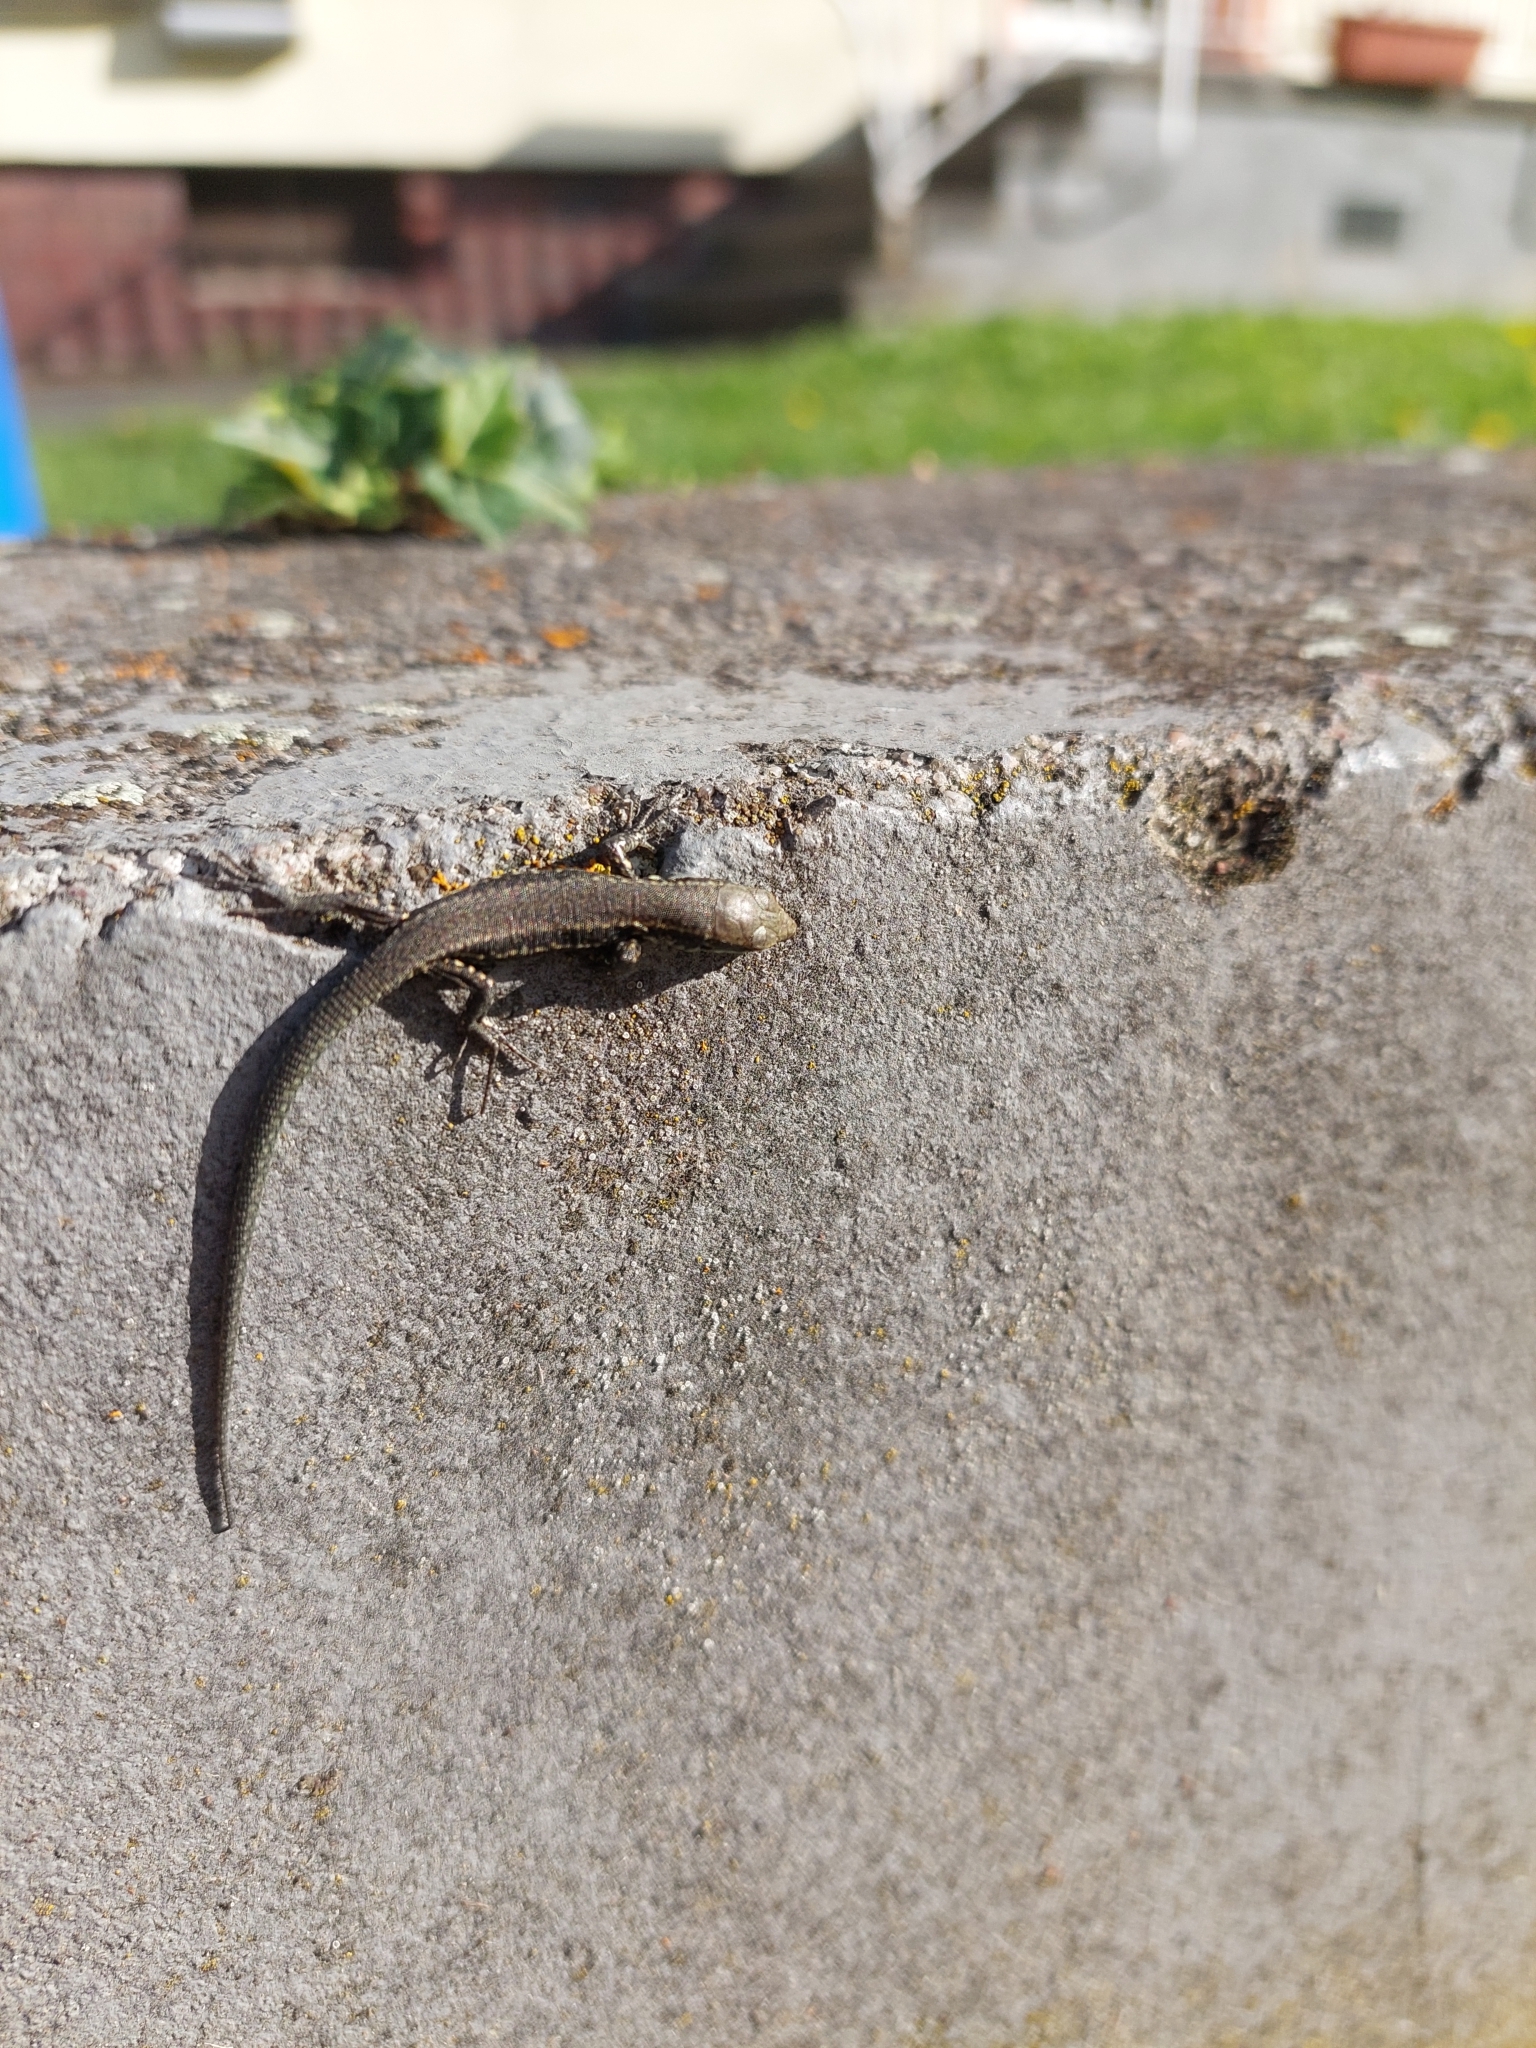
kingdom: Animalia
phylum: Chordata
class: Squamata
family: Lacertidae
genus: Podarcis
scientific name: Podarcis muralis
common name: Common wall lizard
